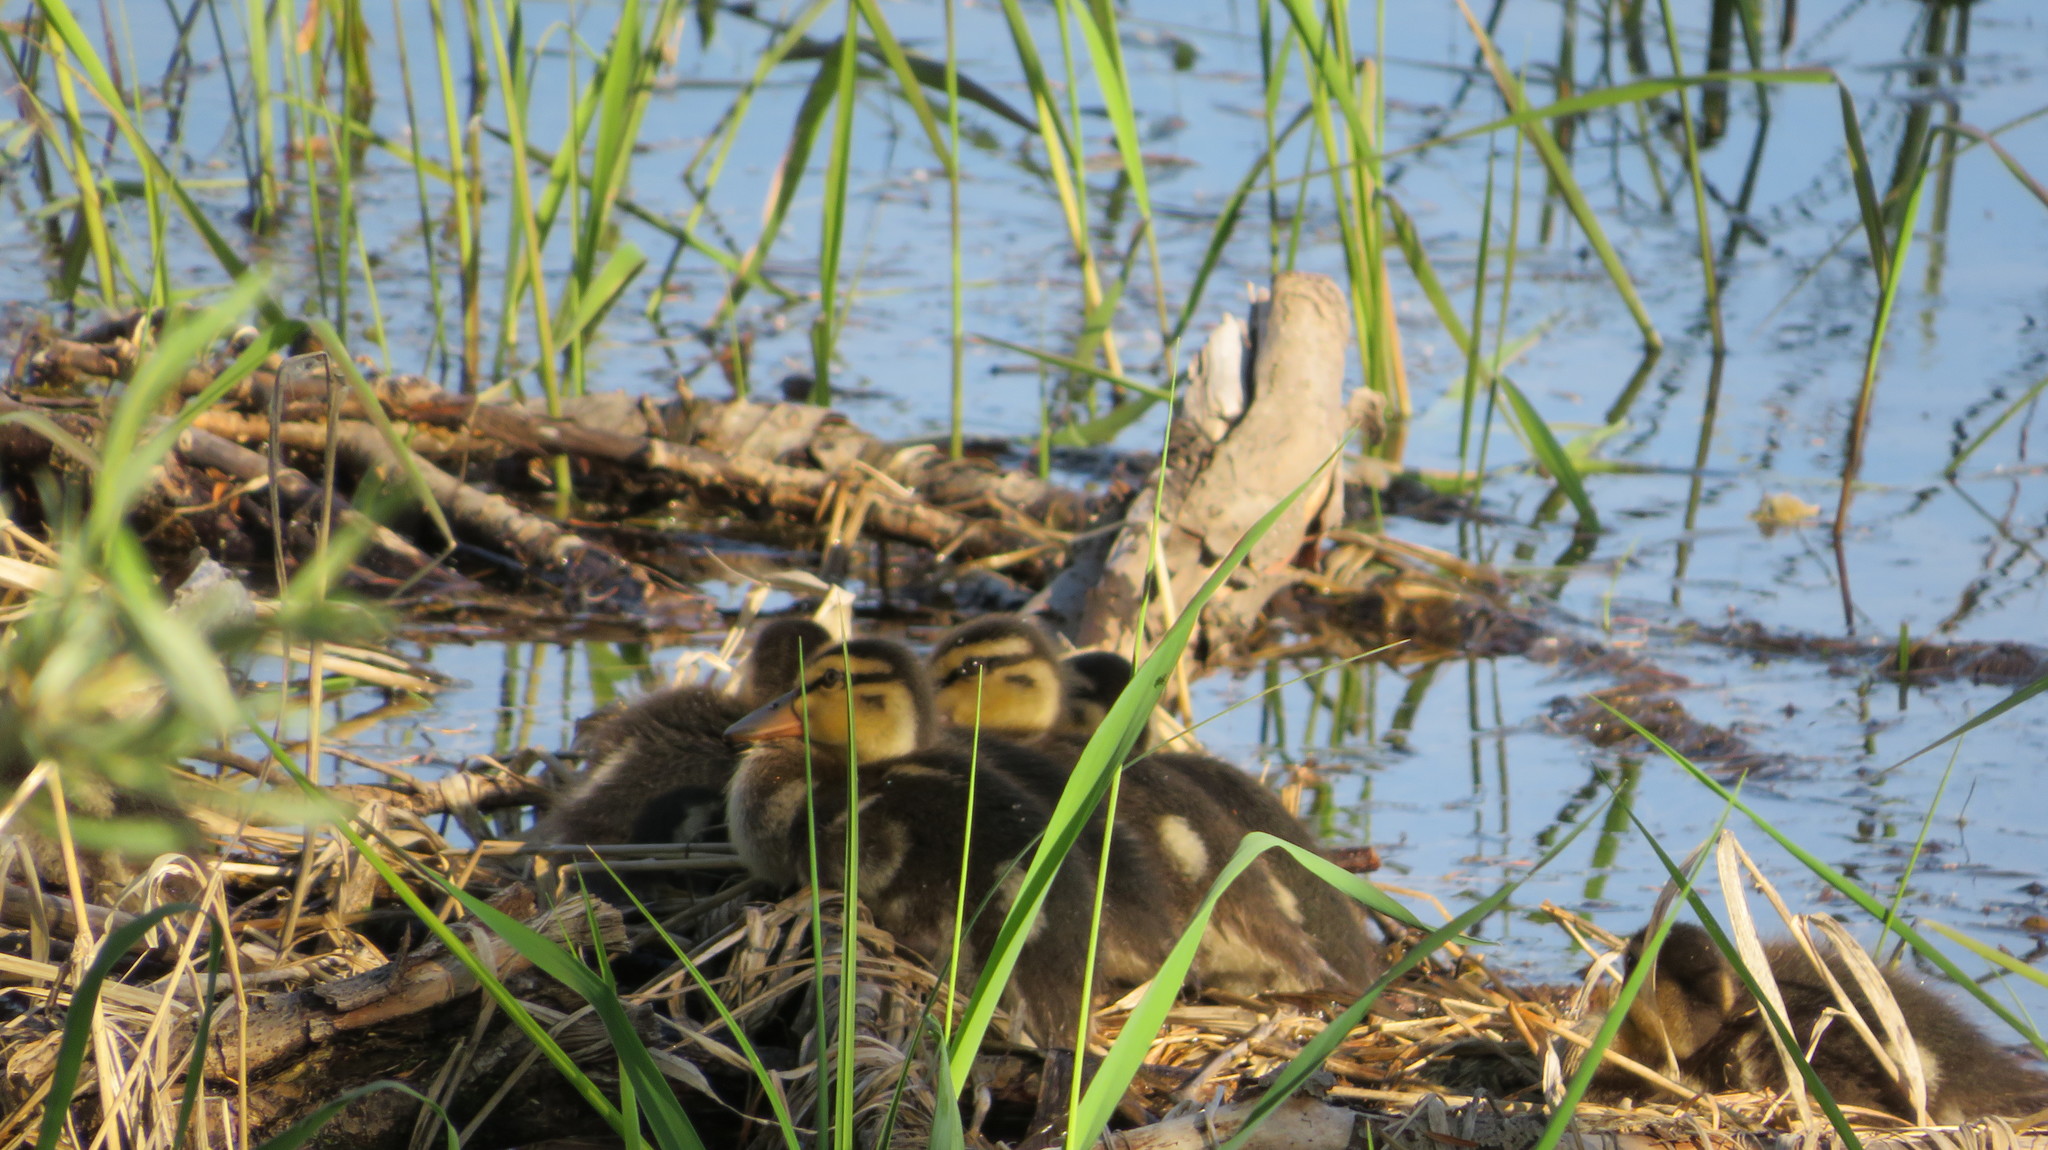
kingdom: Animalia
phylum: Chordata
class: Aves
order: Anseriformes
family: Anatidae
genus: Anas
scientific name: Anas platyrhynchos
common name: Mallard
